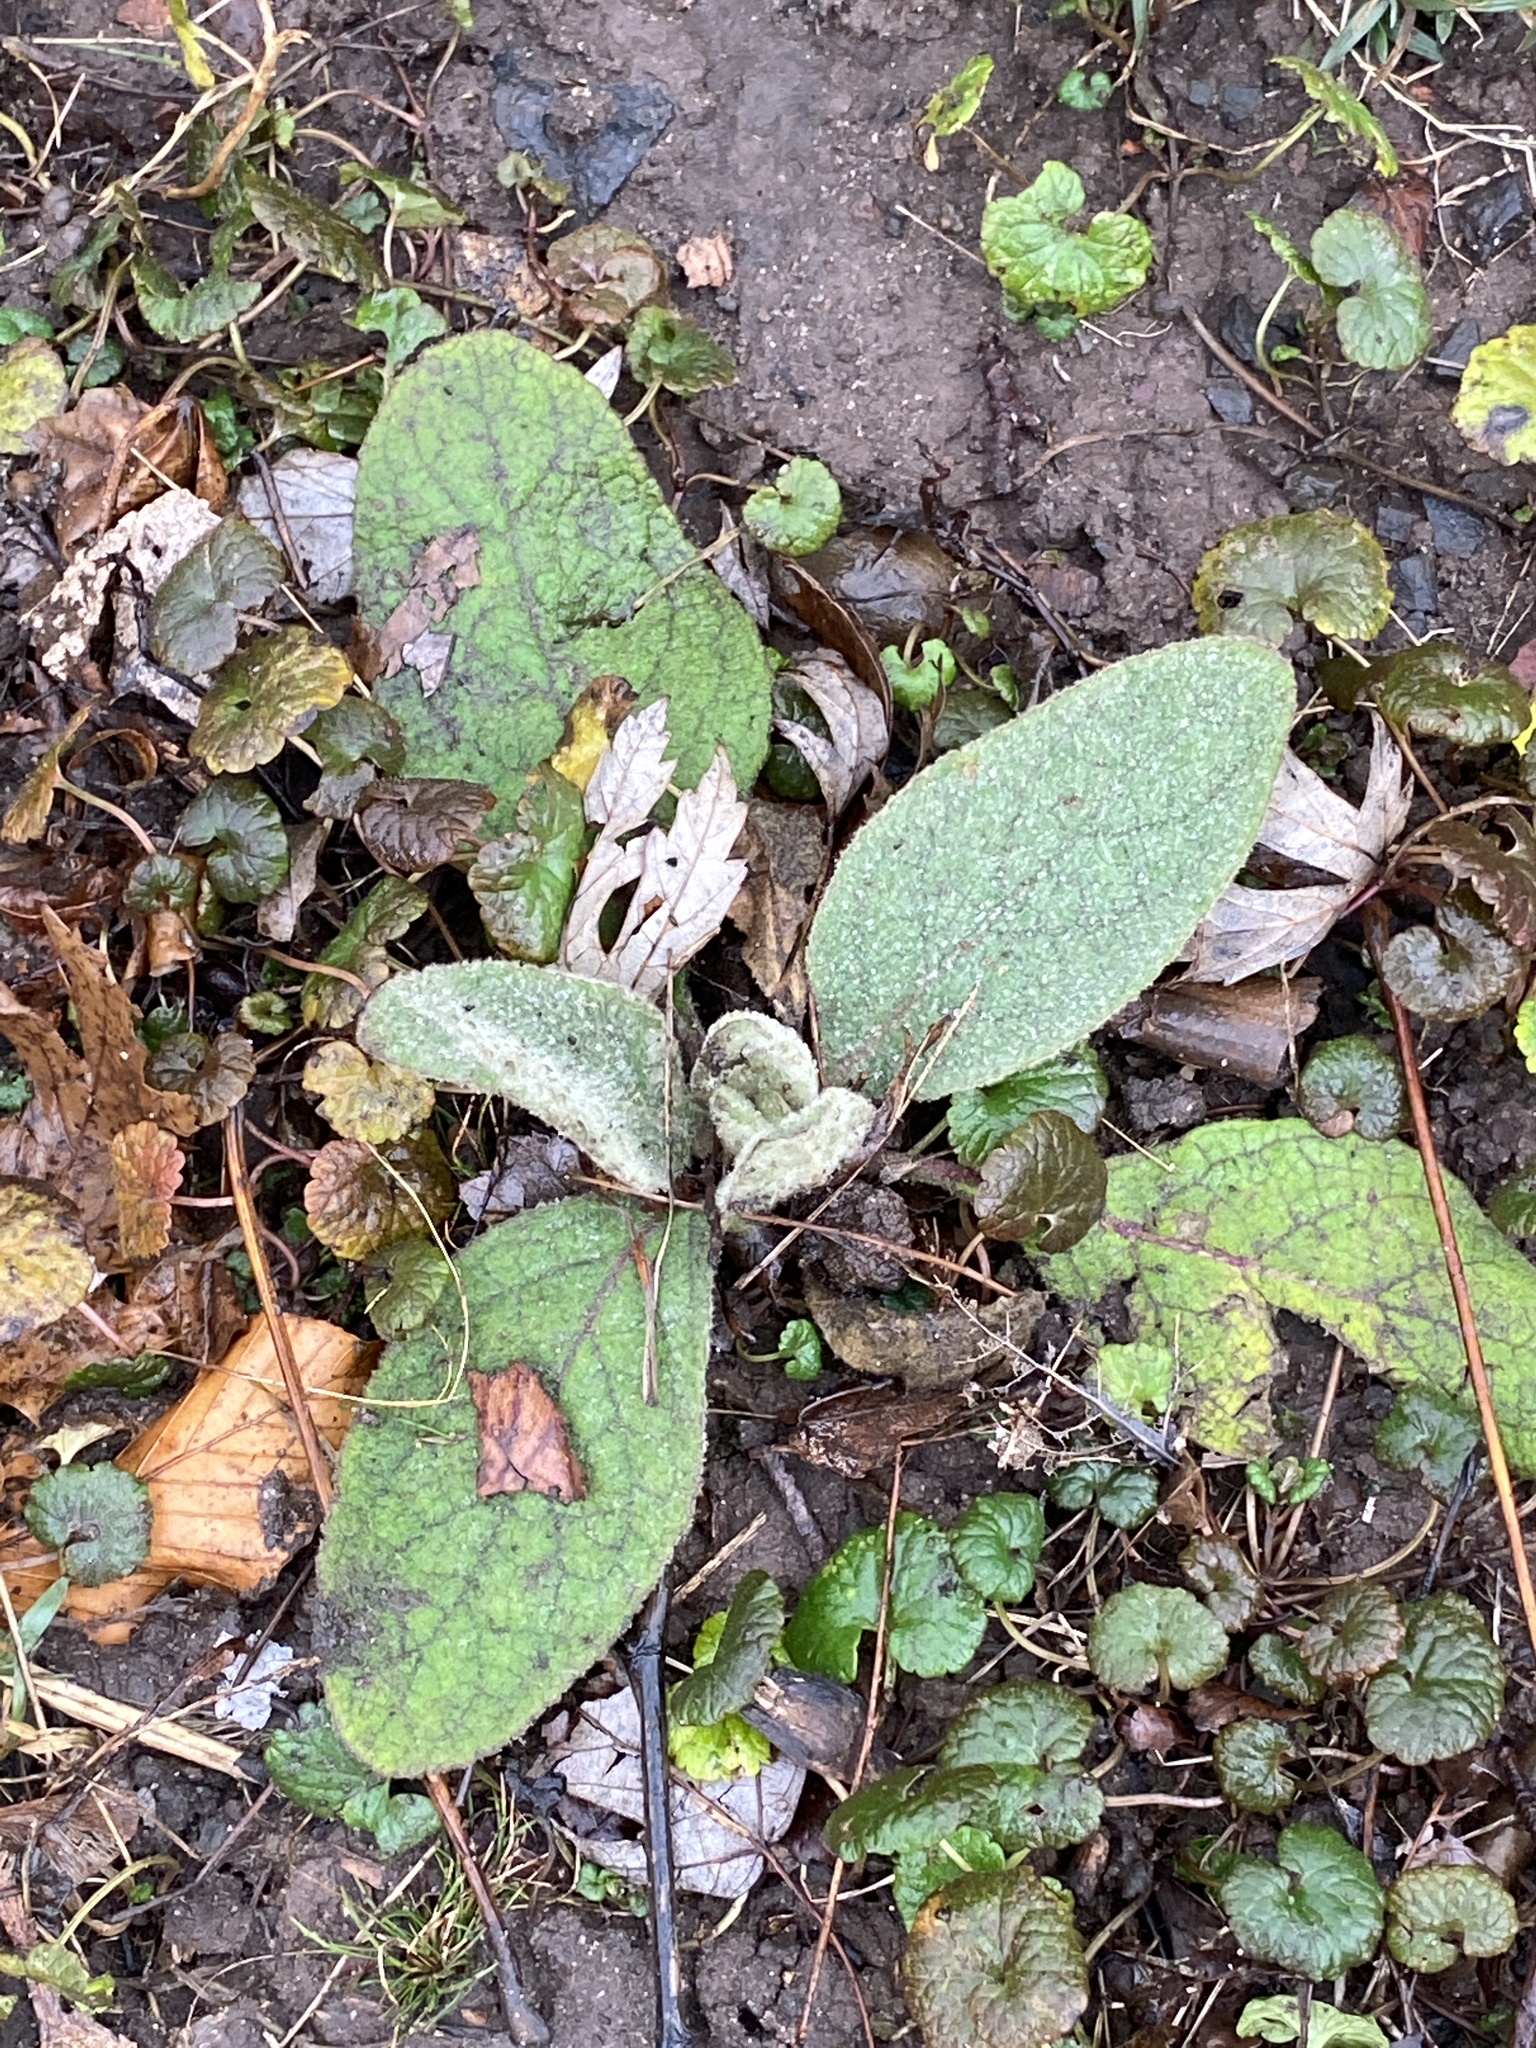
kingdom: Plantae
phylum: Tracheophyta
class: Magnoliopsida
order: Lamiales
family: Scrophulariaceae
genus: Verbascum
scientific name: Verbascum thapsus
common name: Common mullein
